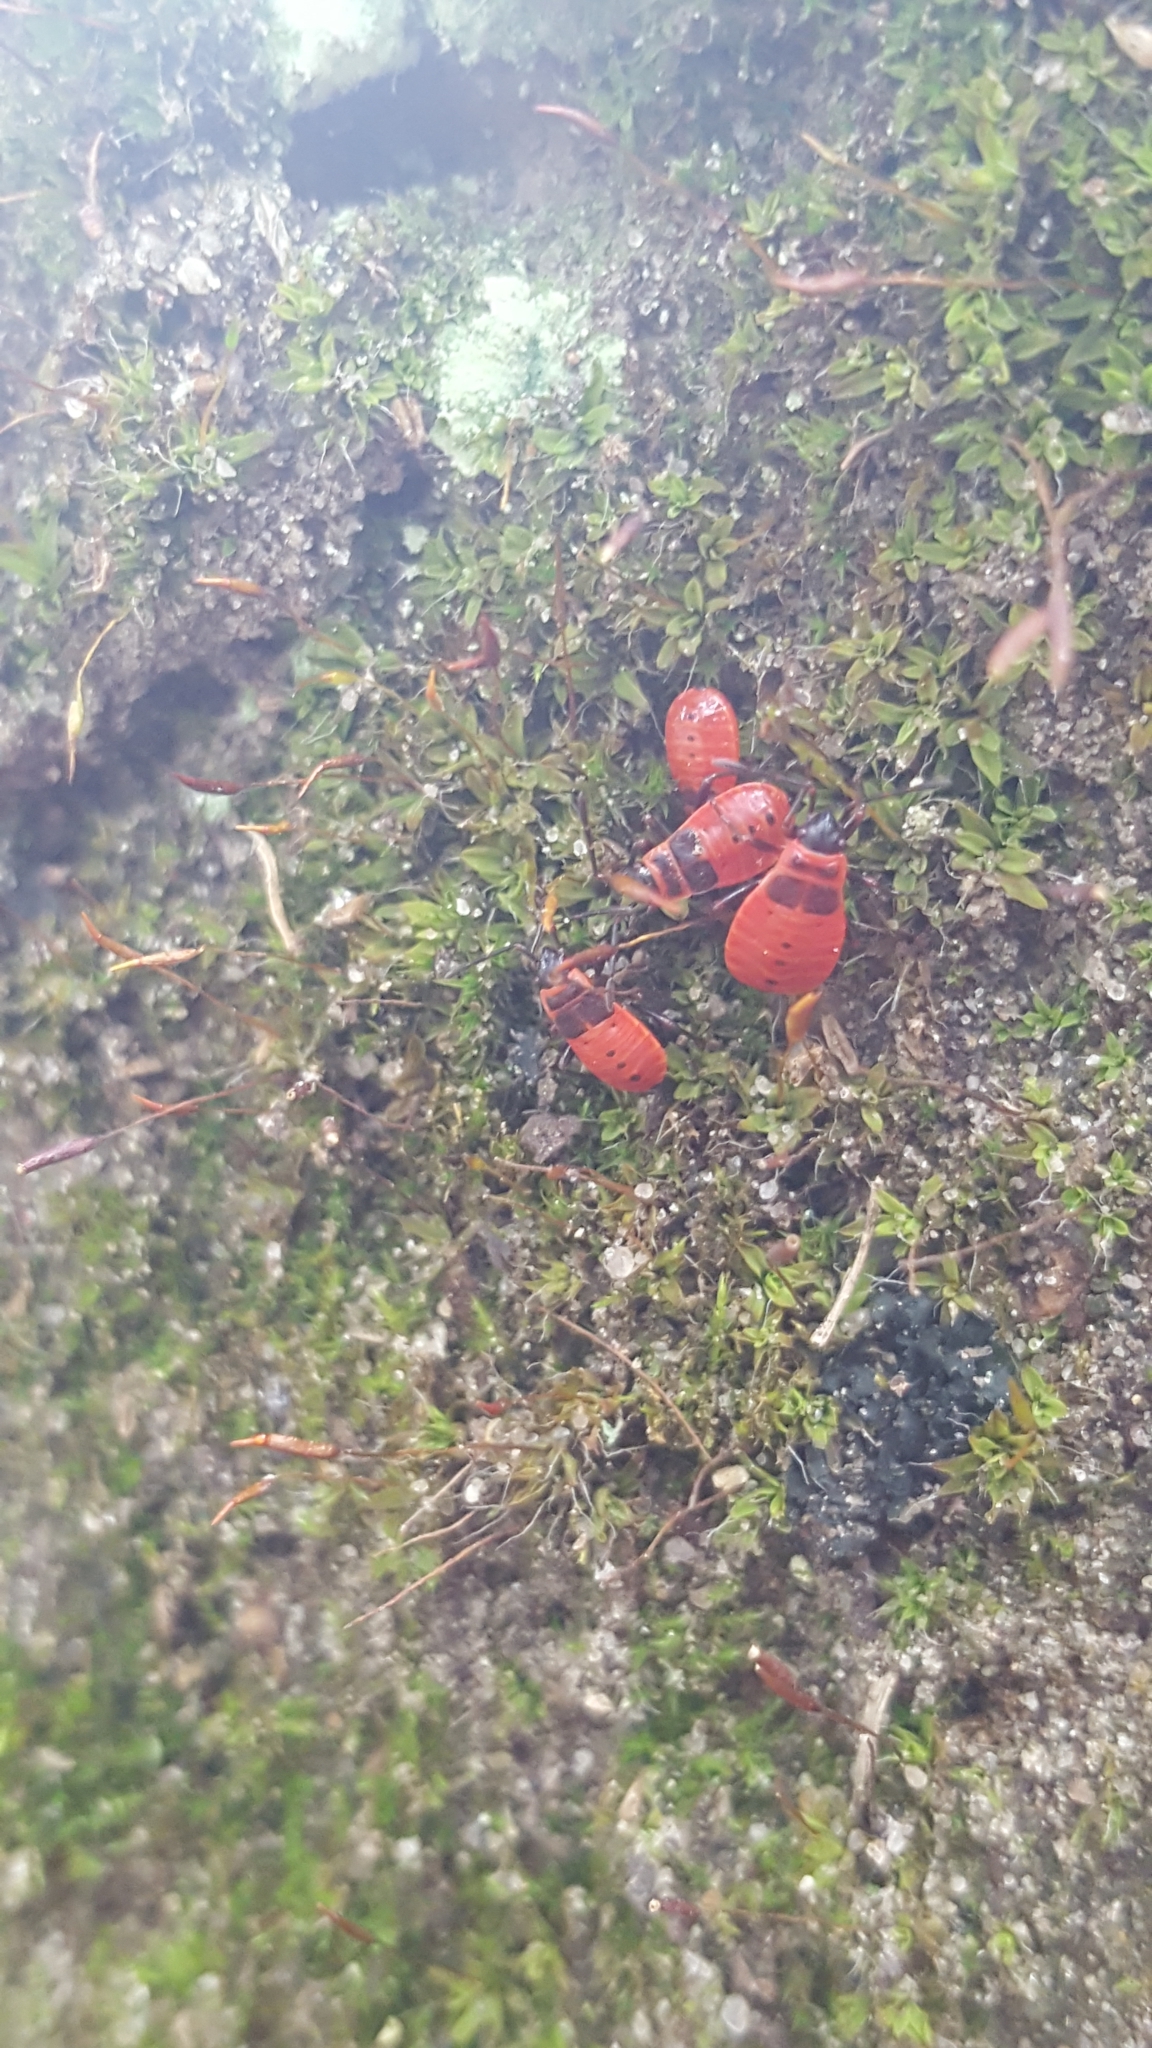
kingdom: Animalia
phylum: Arthropoda
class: Insecta
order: Hemiptera
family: Pyrrhocoridae
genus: Pyrrhocoris
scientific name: Pyrrhocoris apterus
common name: Firebug
